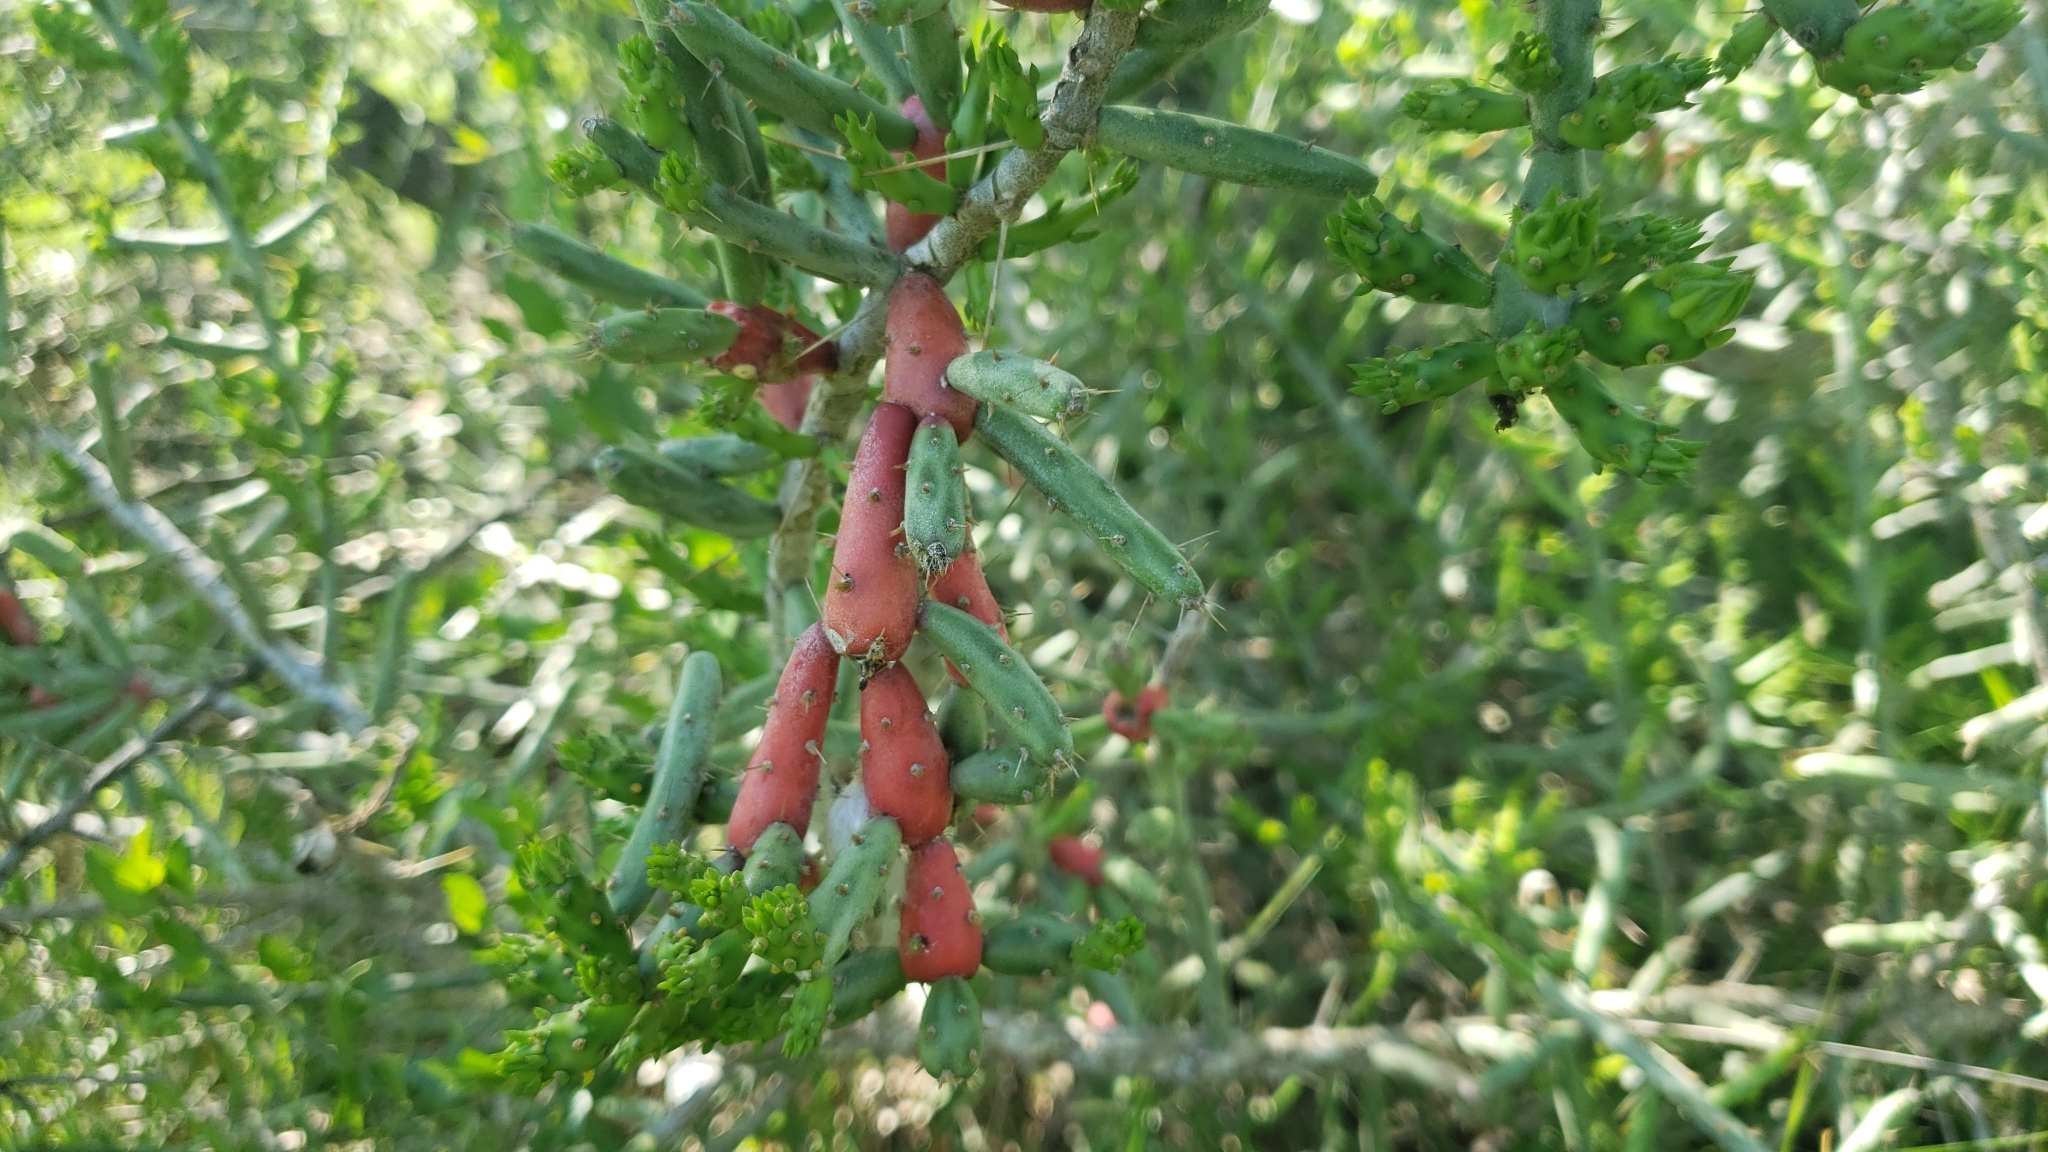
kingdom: Plantae
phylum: Tracheophyta
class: Magnoliopsida
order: Caryophyllales
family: Cactaceae
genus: Cylindropuntia
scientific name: Cylindropuntia leptocaulis
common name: Christmas cactus
